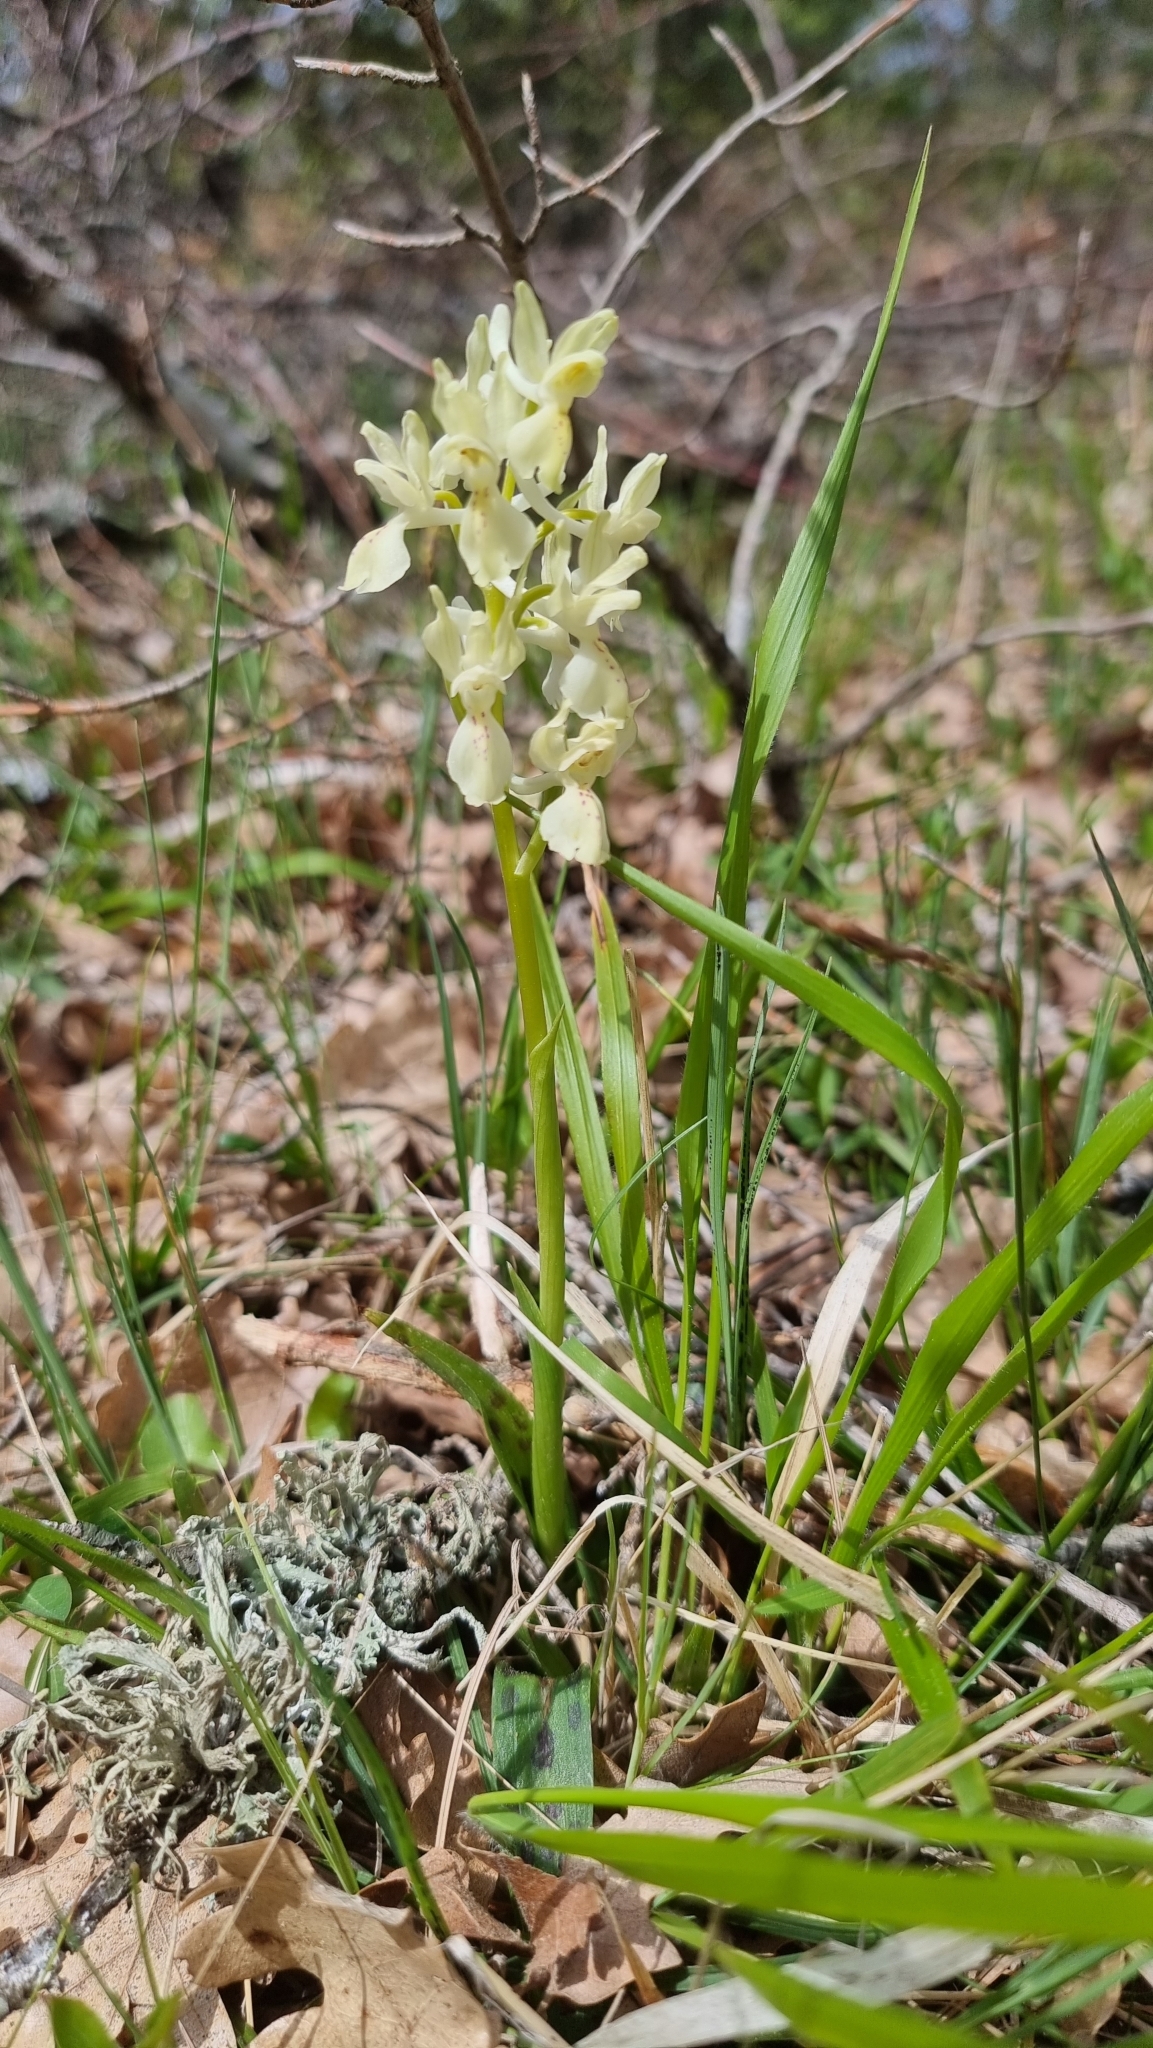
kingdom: Plantae
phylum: Tracheophyta
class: Liliopsida
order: Asparagales
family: Orchidaceae
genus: Orchis
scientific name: Orchis provincialis
